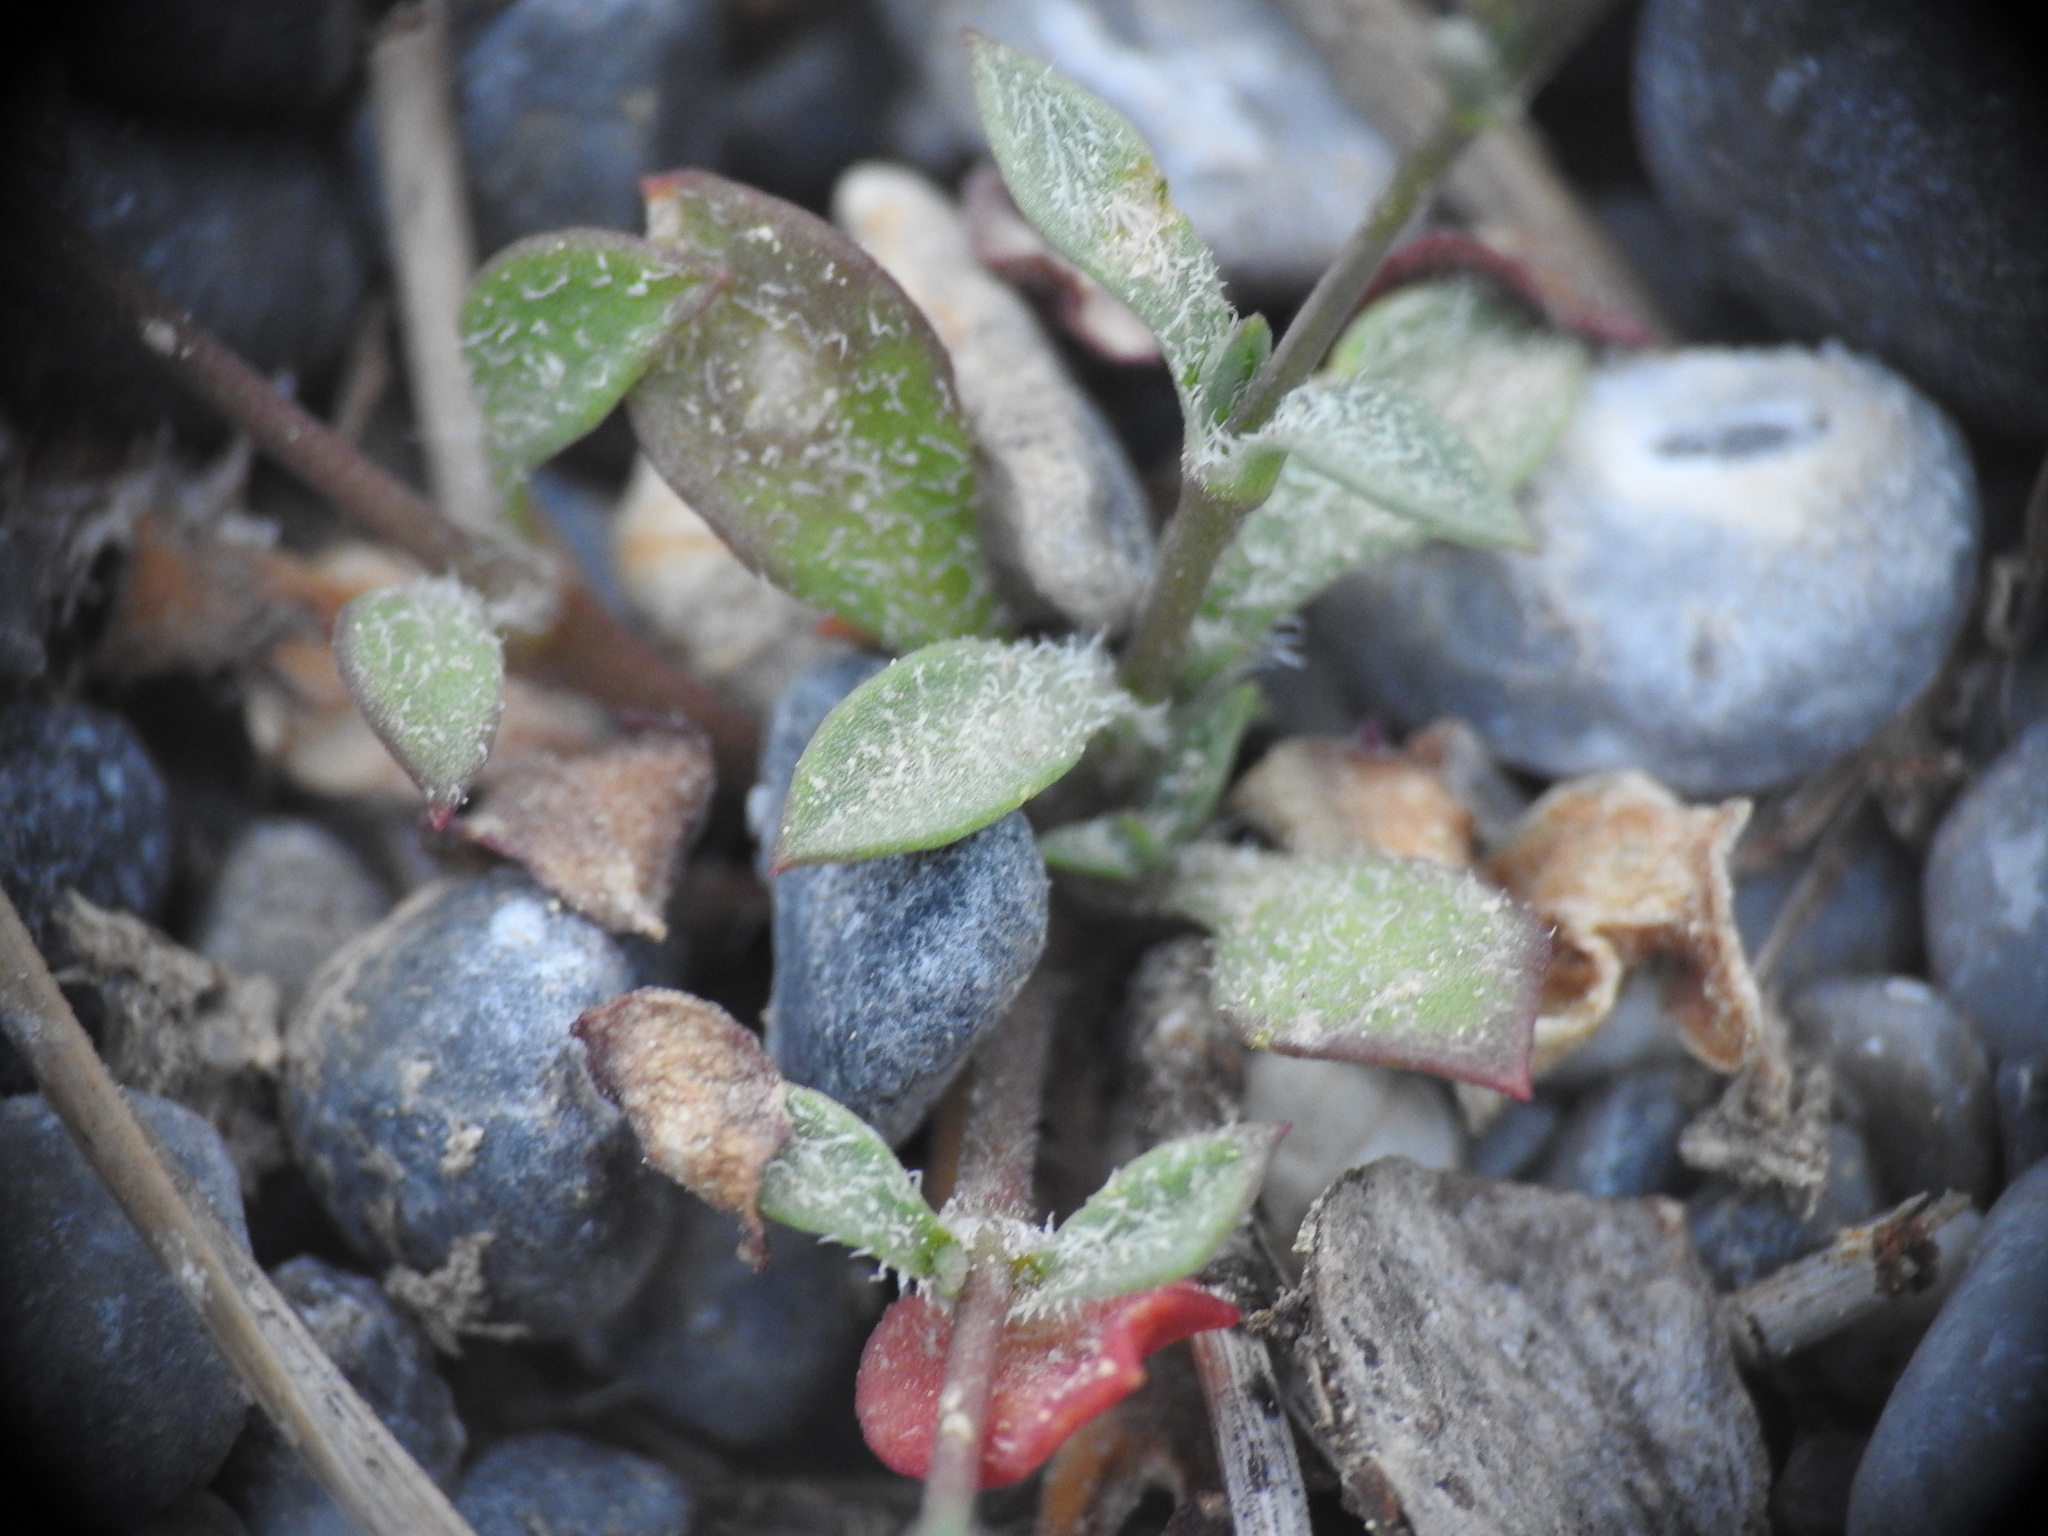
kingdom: Plantae
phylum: Tracheophyta
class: Magnoliopsida
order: Caryophyllales
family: Caryophyllaceae
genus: Silene
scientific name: Silene pinetorum
